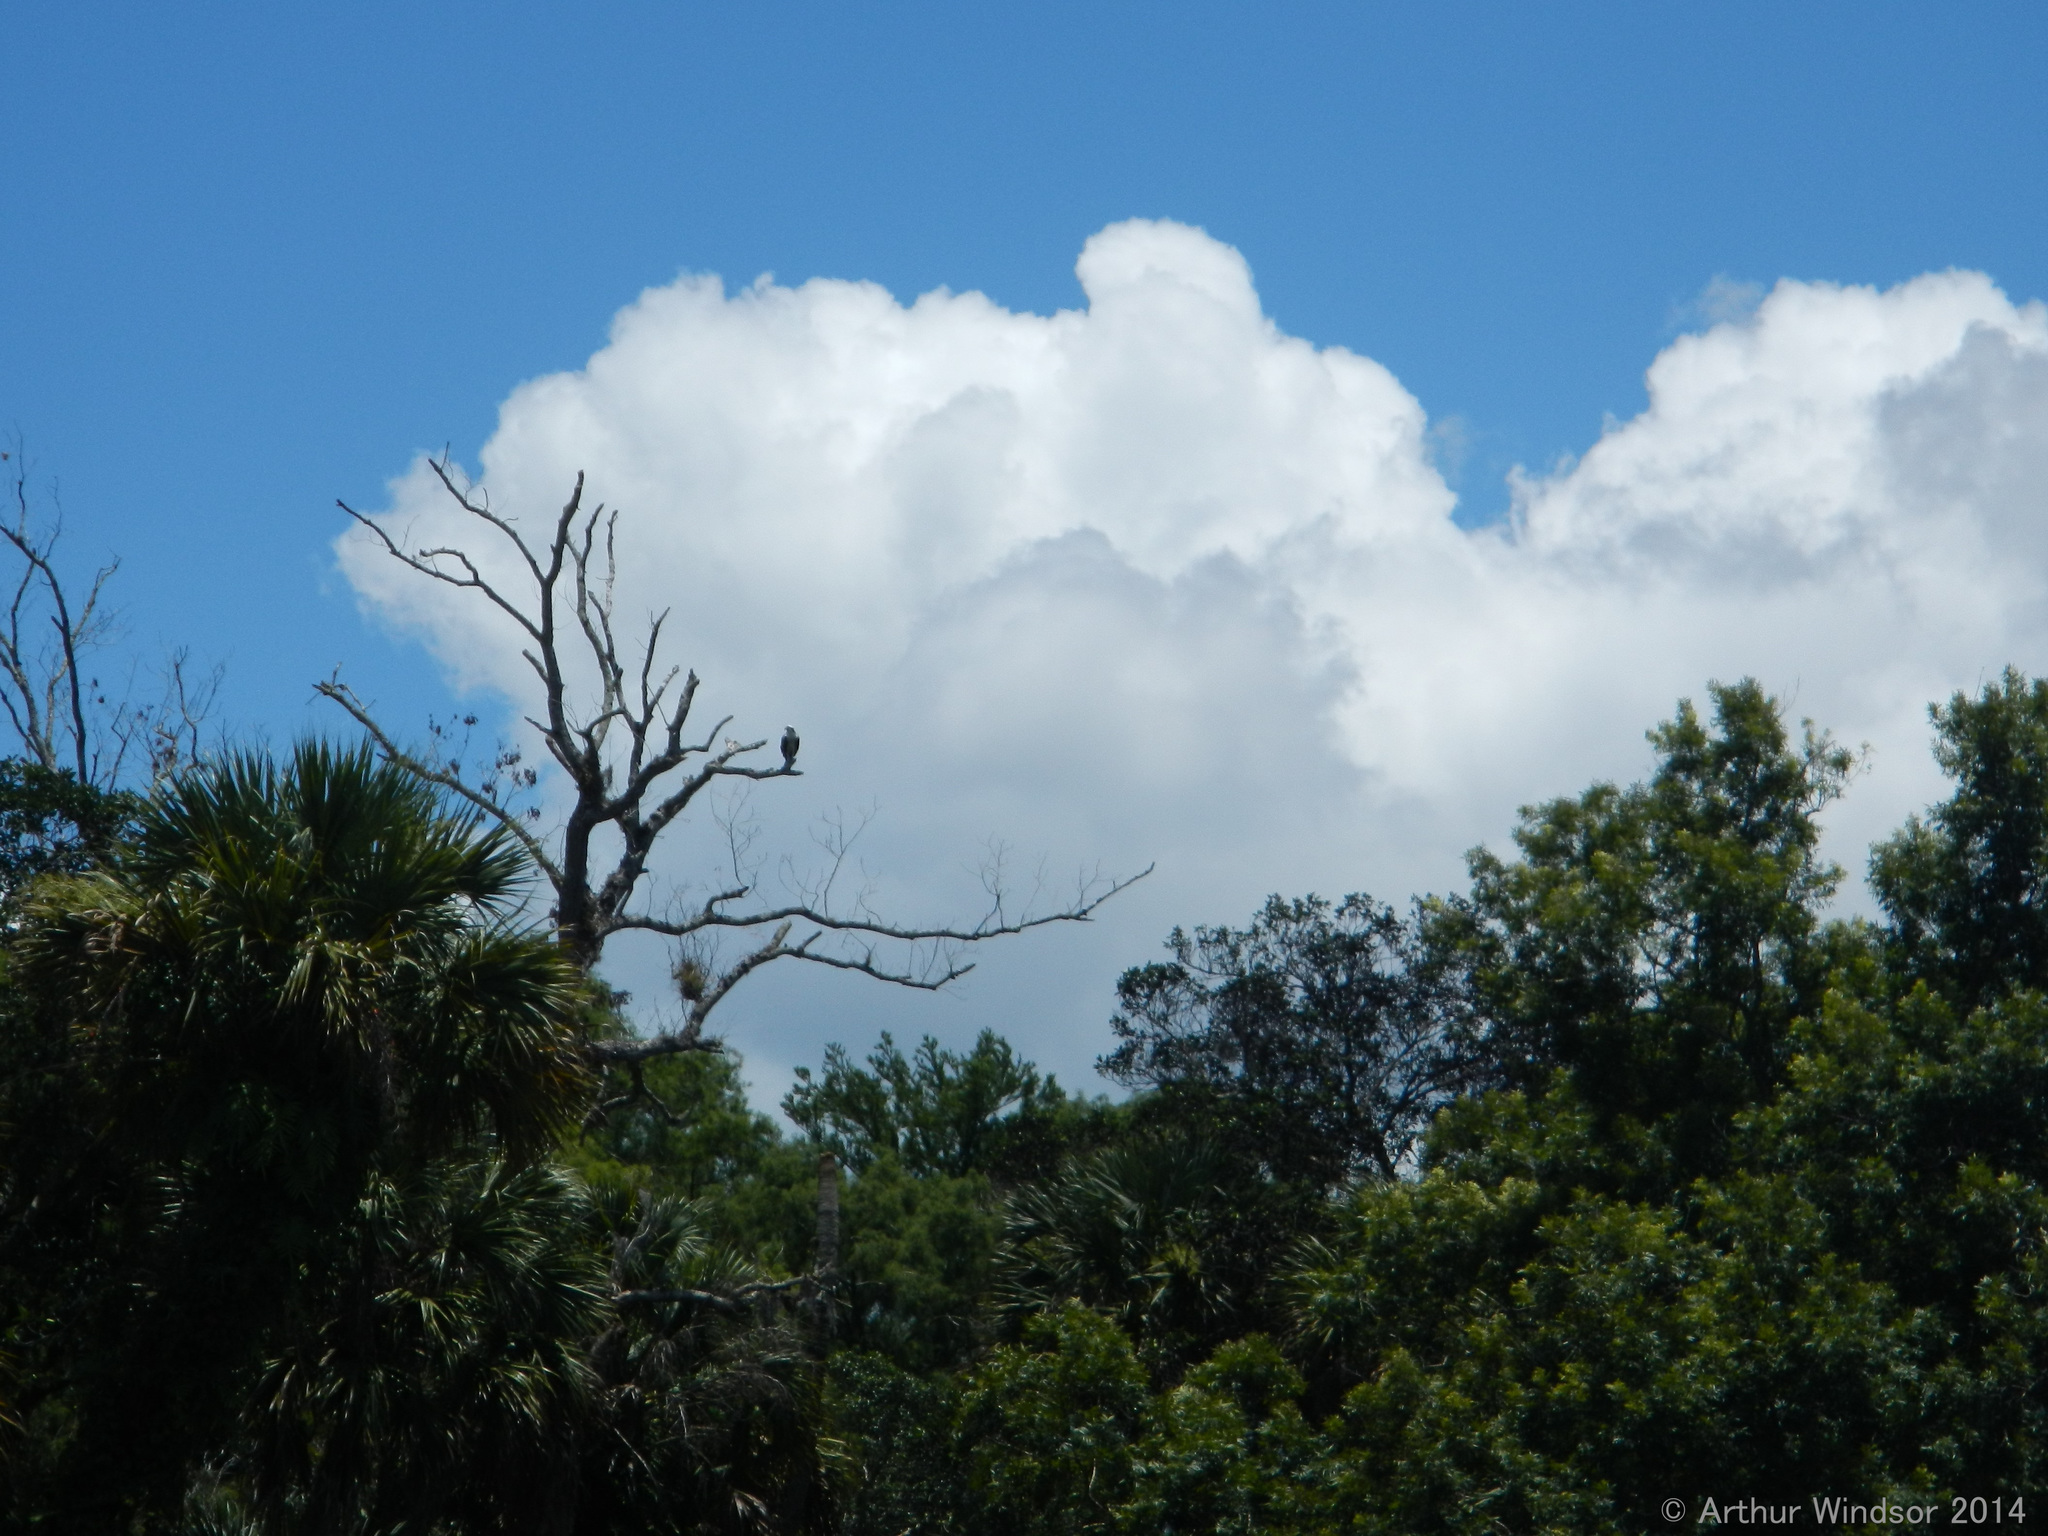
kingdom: Animalia
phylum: Chordata
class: Aves
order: Accipitriformes
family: Pandionidae
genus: Pandion
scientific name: Pandion haliaetus
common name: Osprey
